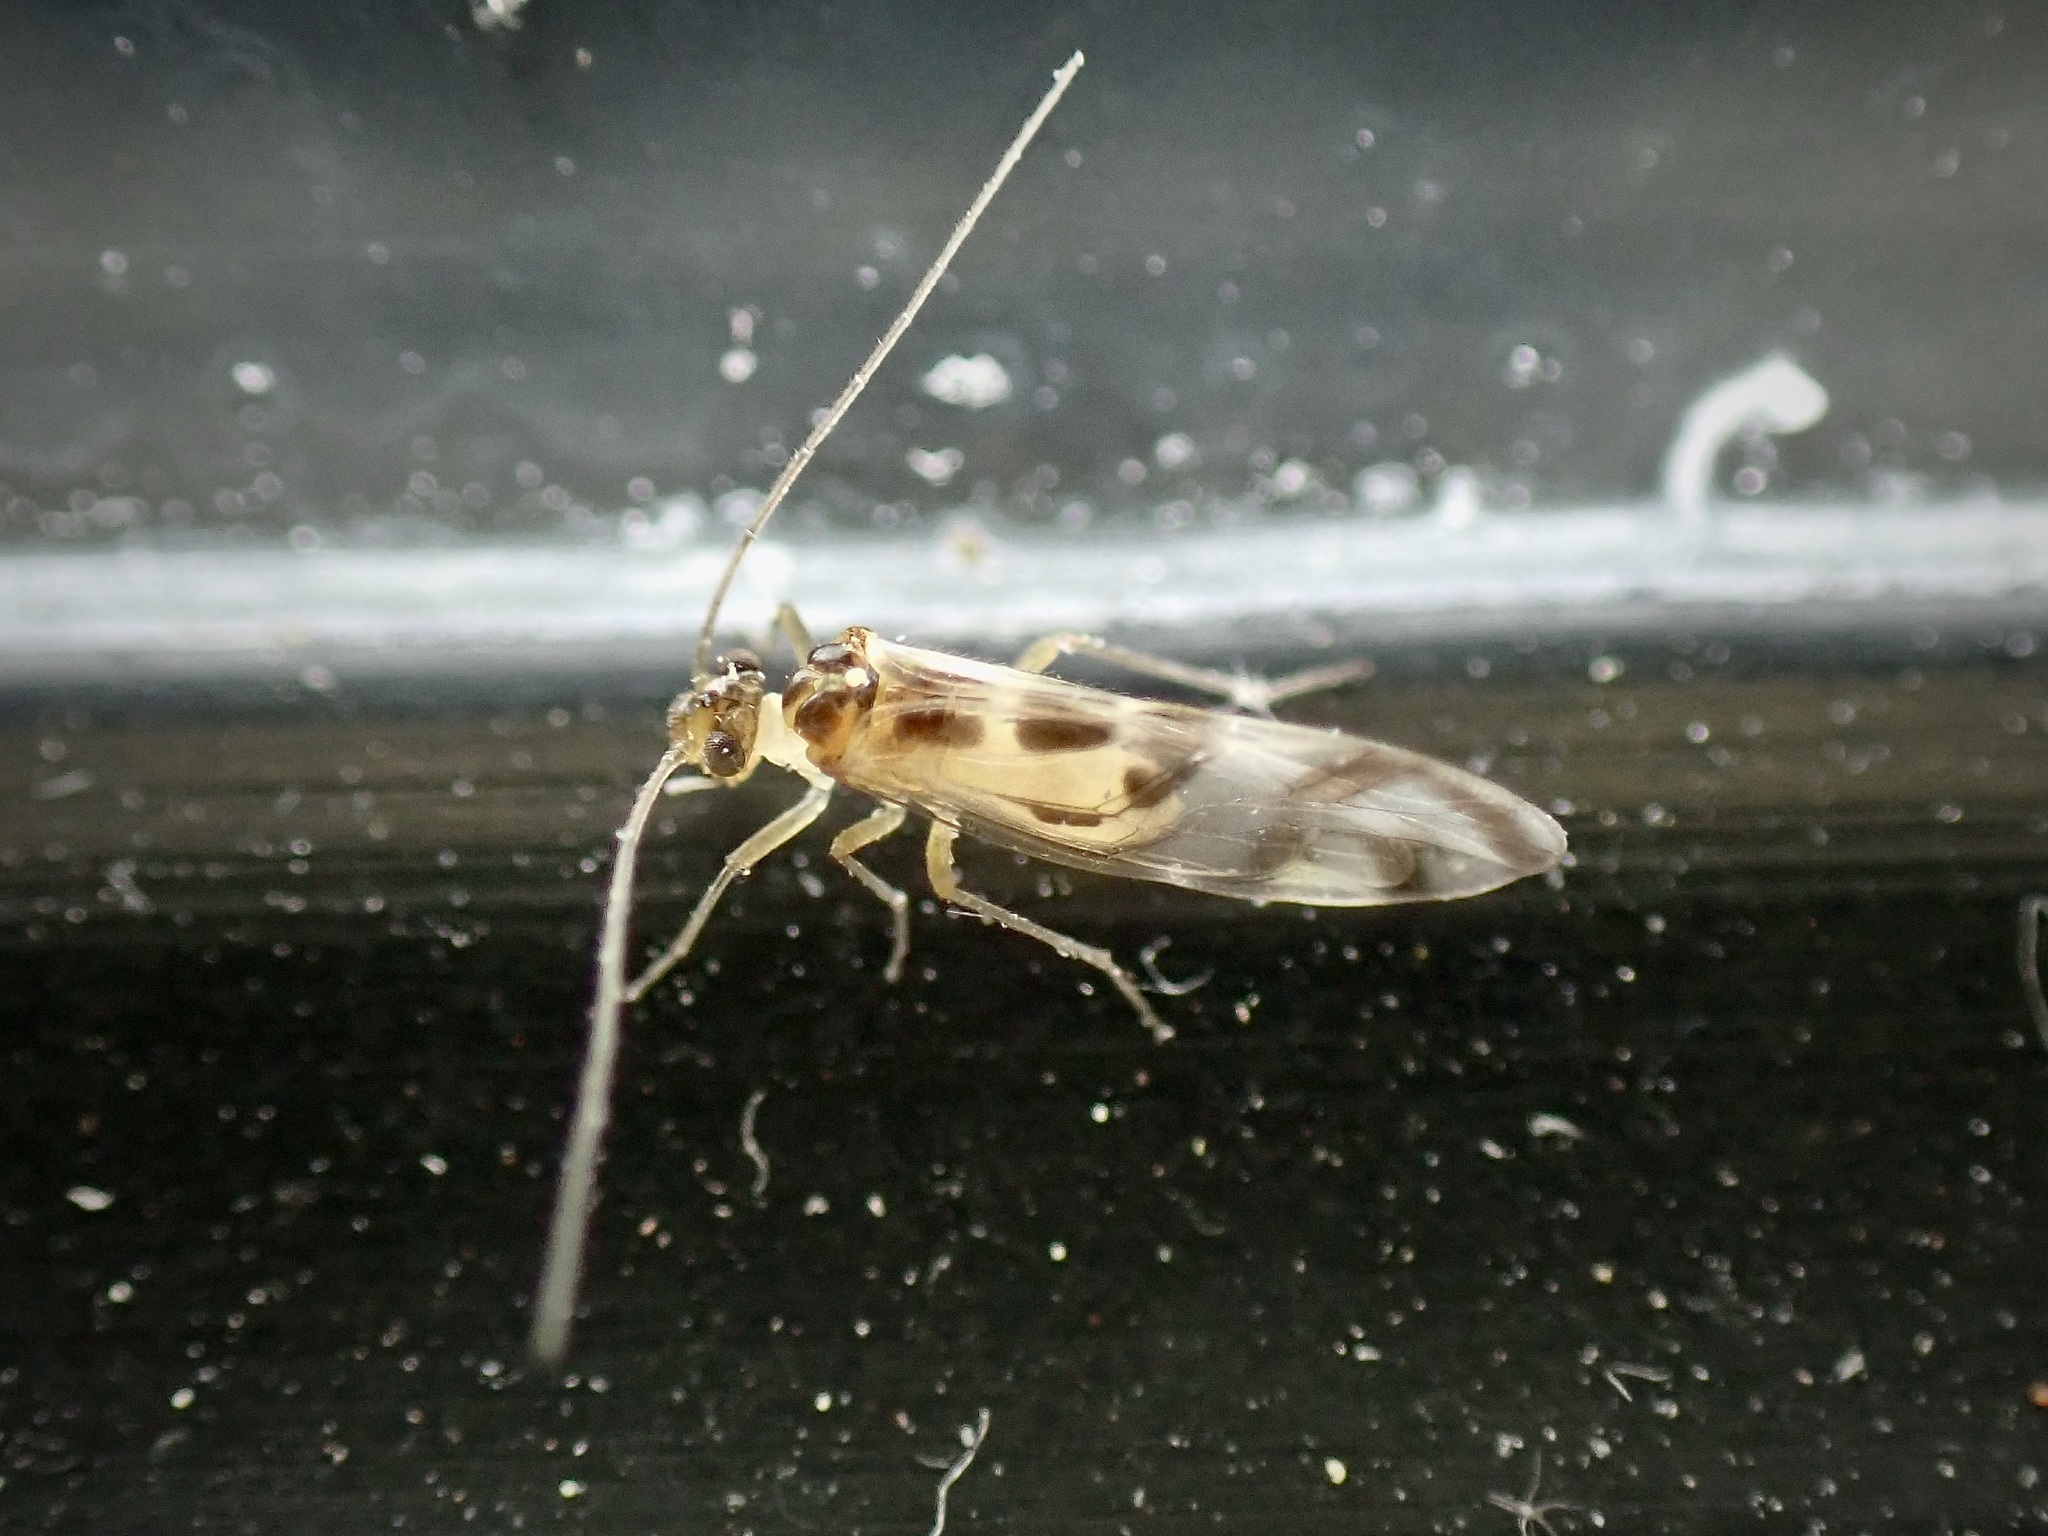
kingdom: Animalia
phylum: Arthropoda
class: Insecta
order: Psocodea
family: Stenopsocidae
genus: Graphopsocus
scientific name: Graphopsocus cruciatus
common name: Lizard bark louse
